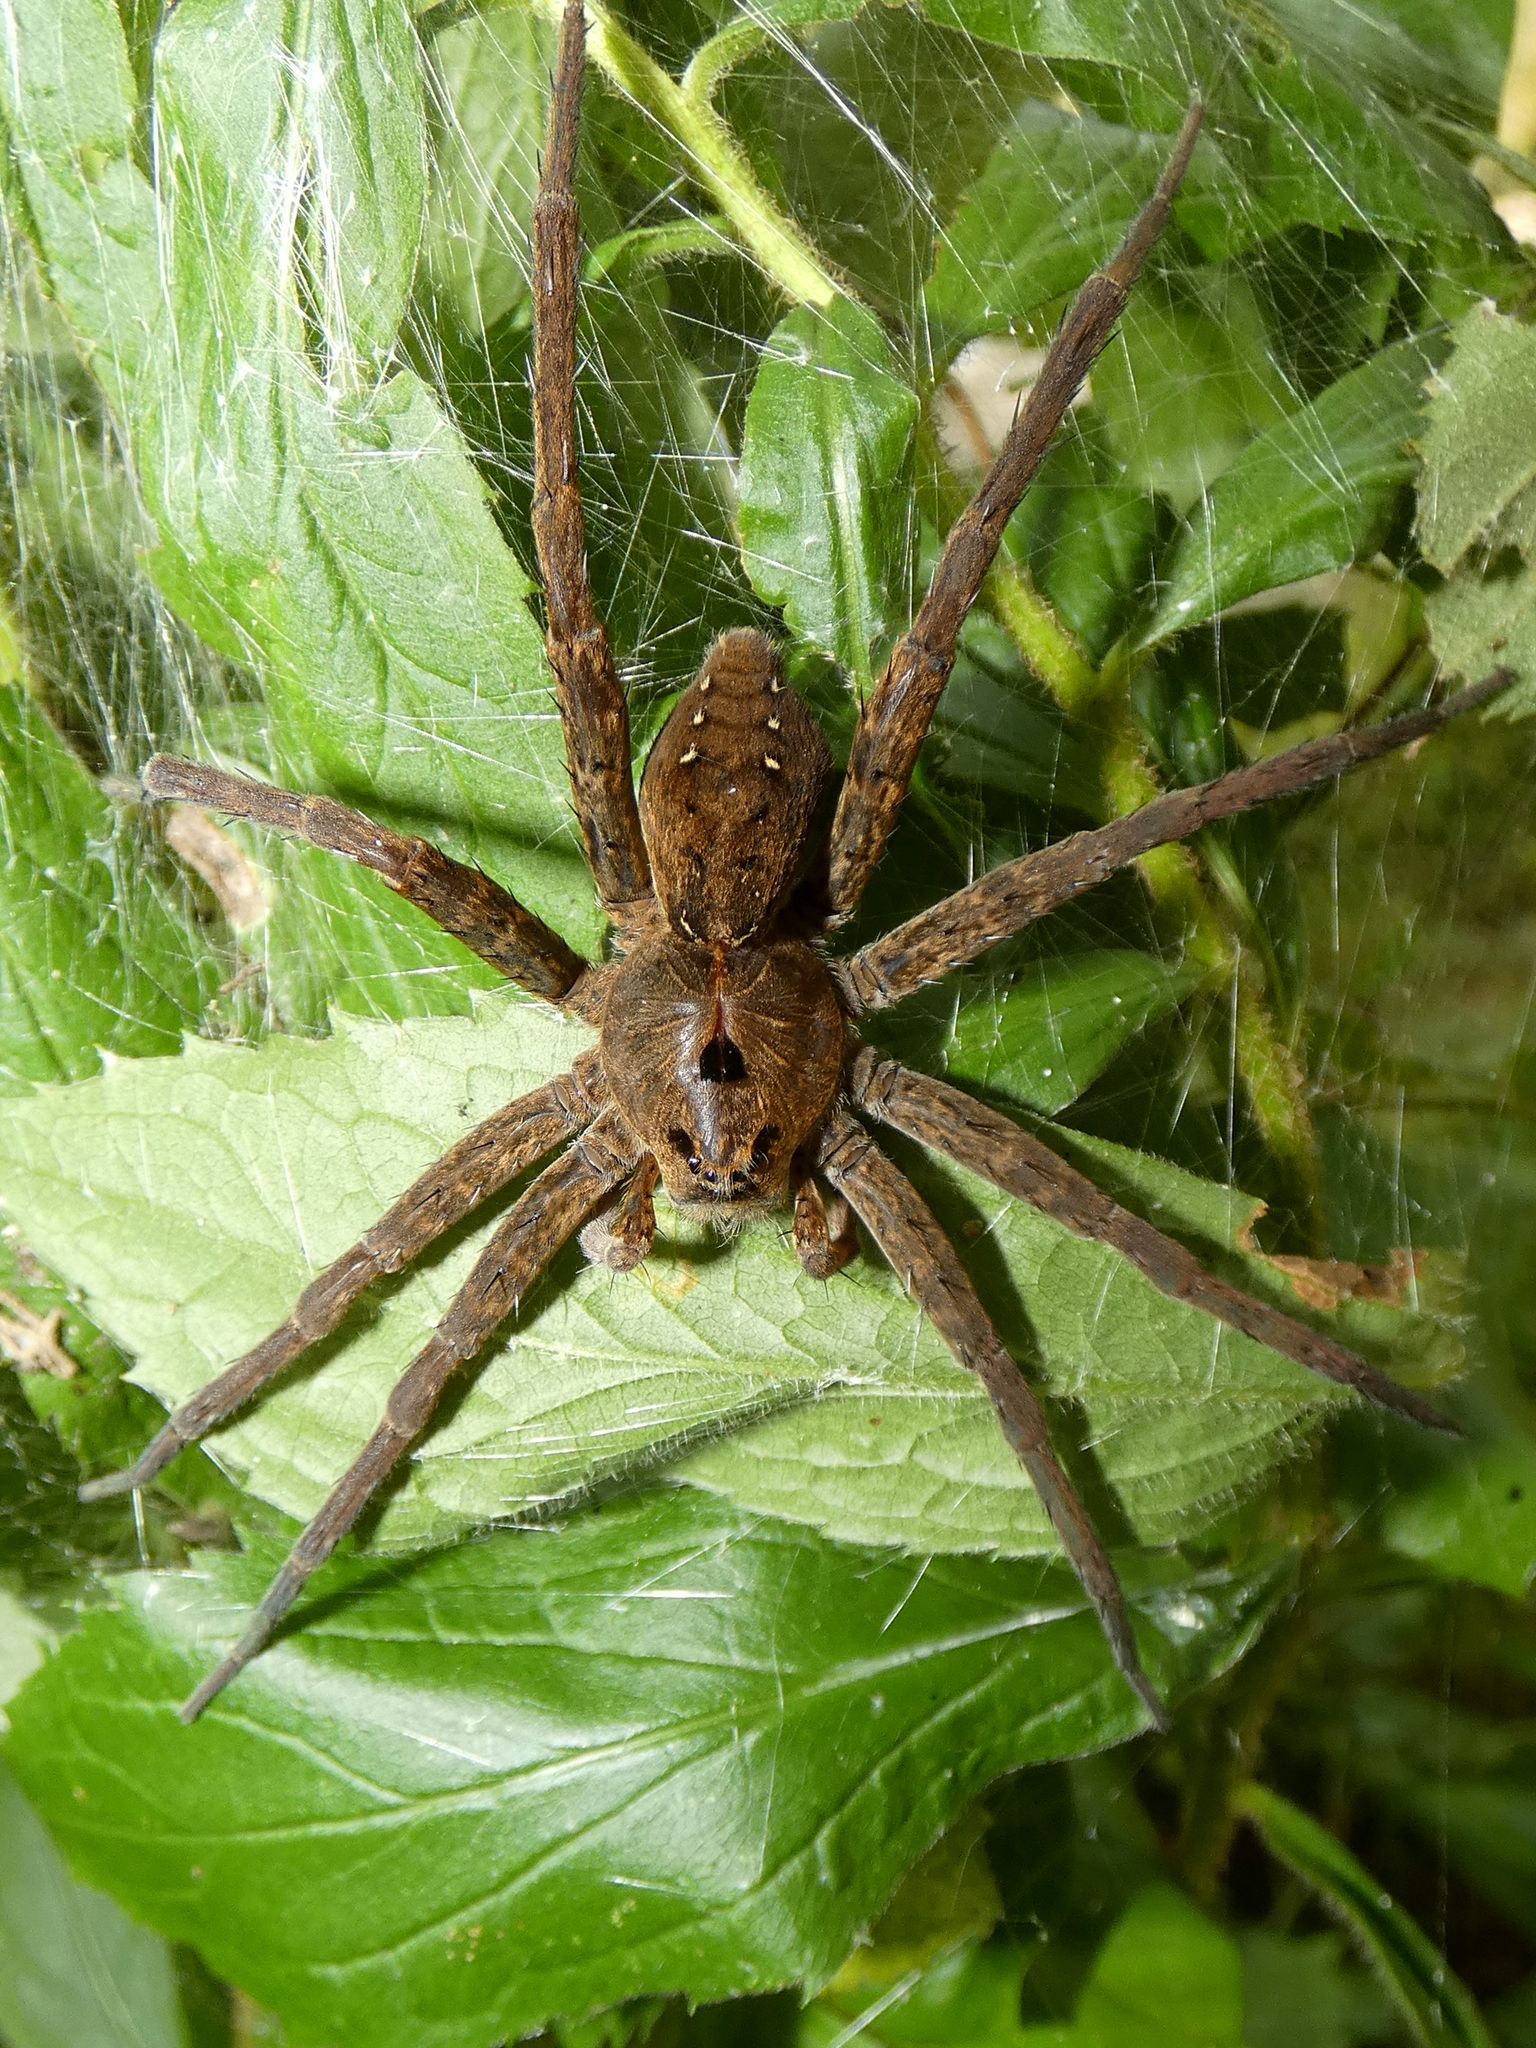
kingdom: Animalia
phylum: Arthropoda
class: Arachnida
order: Araneae
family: Pisauridae
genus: Dolomedes
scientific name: Dolomedes vittatus
